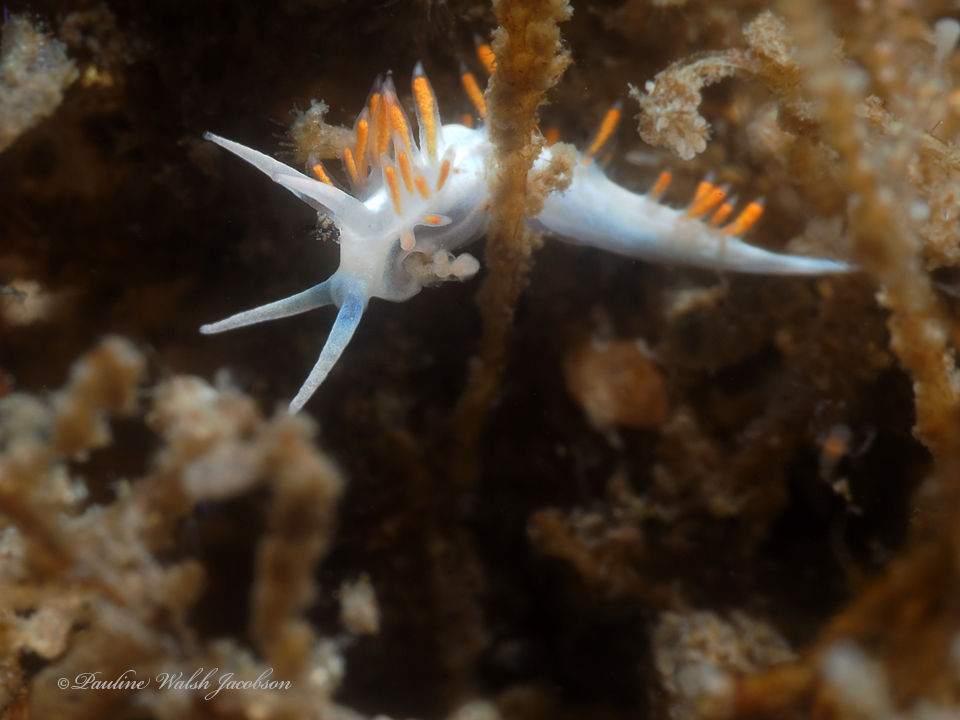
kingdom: Animalia
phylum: Mollusca
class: Gastropoda
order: Nudibranchia
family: Flabellinidae
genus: Flabellina
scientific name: Flabellina dushia
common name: Dushia flabellina
